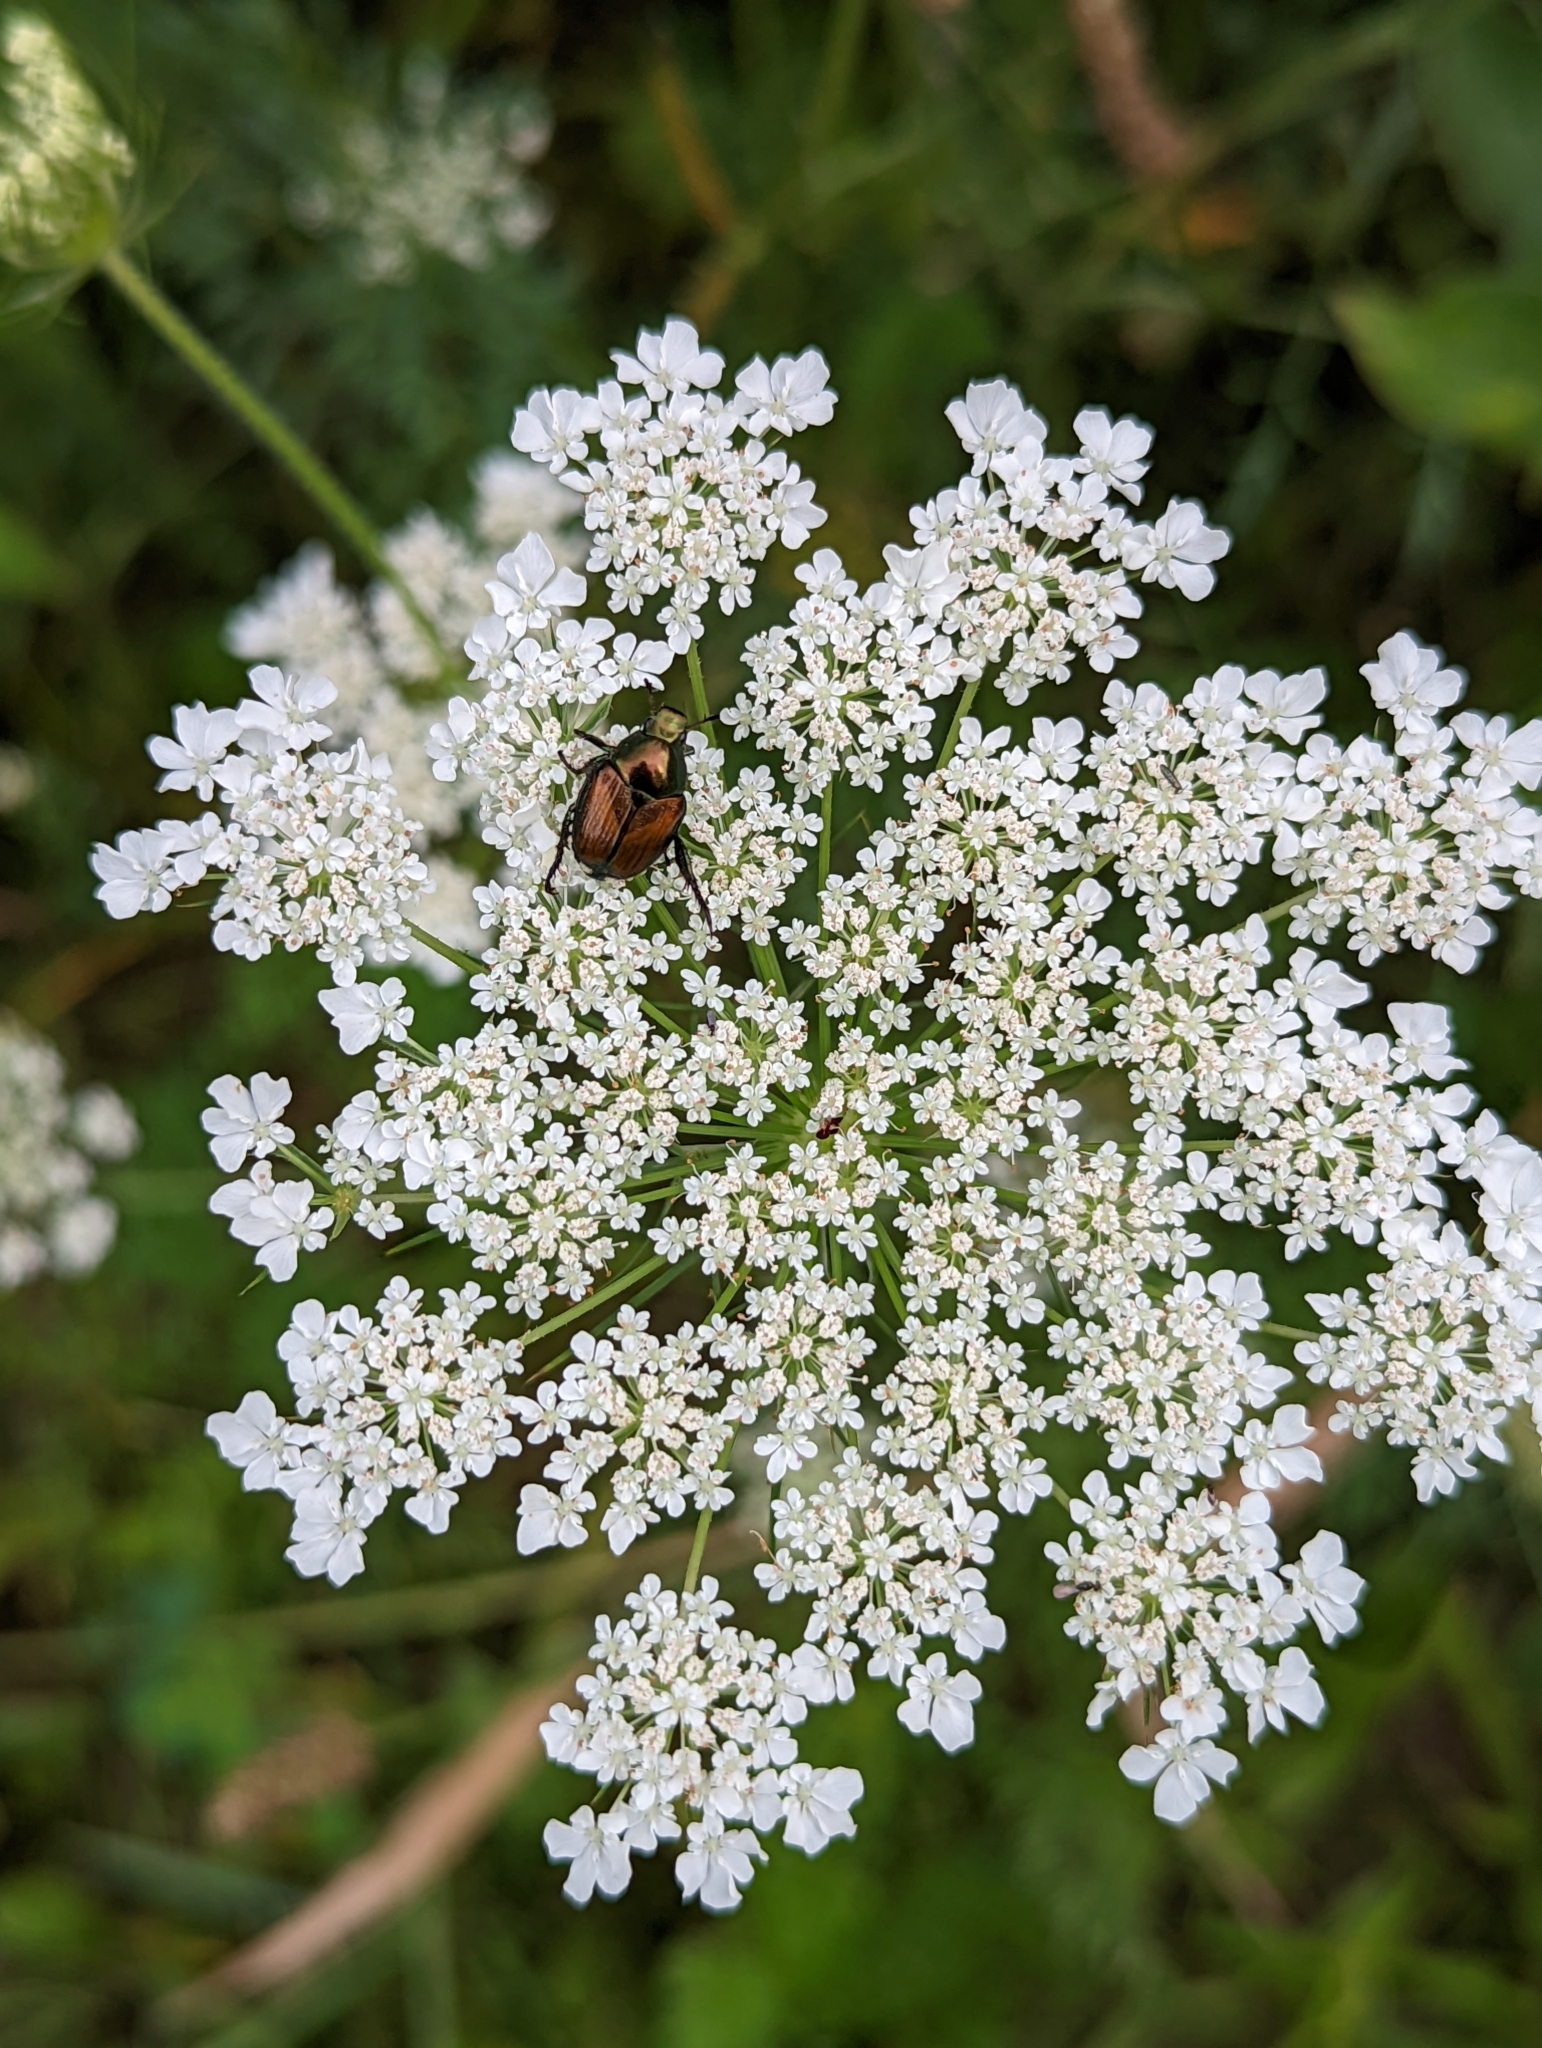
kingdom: Animalia
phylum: Arthropoda
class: Insecta
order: Coleoptera
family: Scarabaeidae
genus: Popillia
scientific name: Popillia japonica
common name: Japanese beetle
